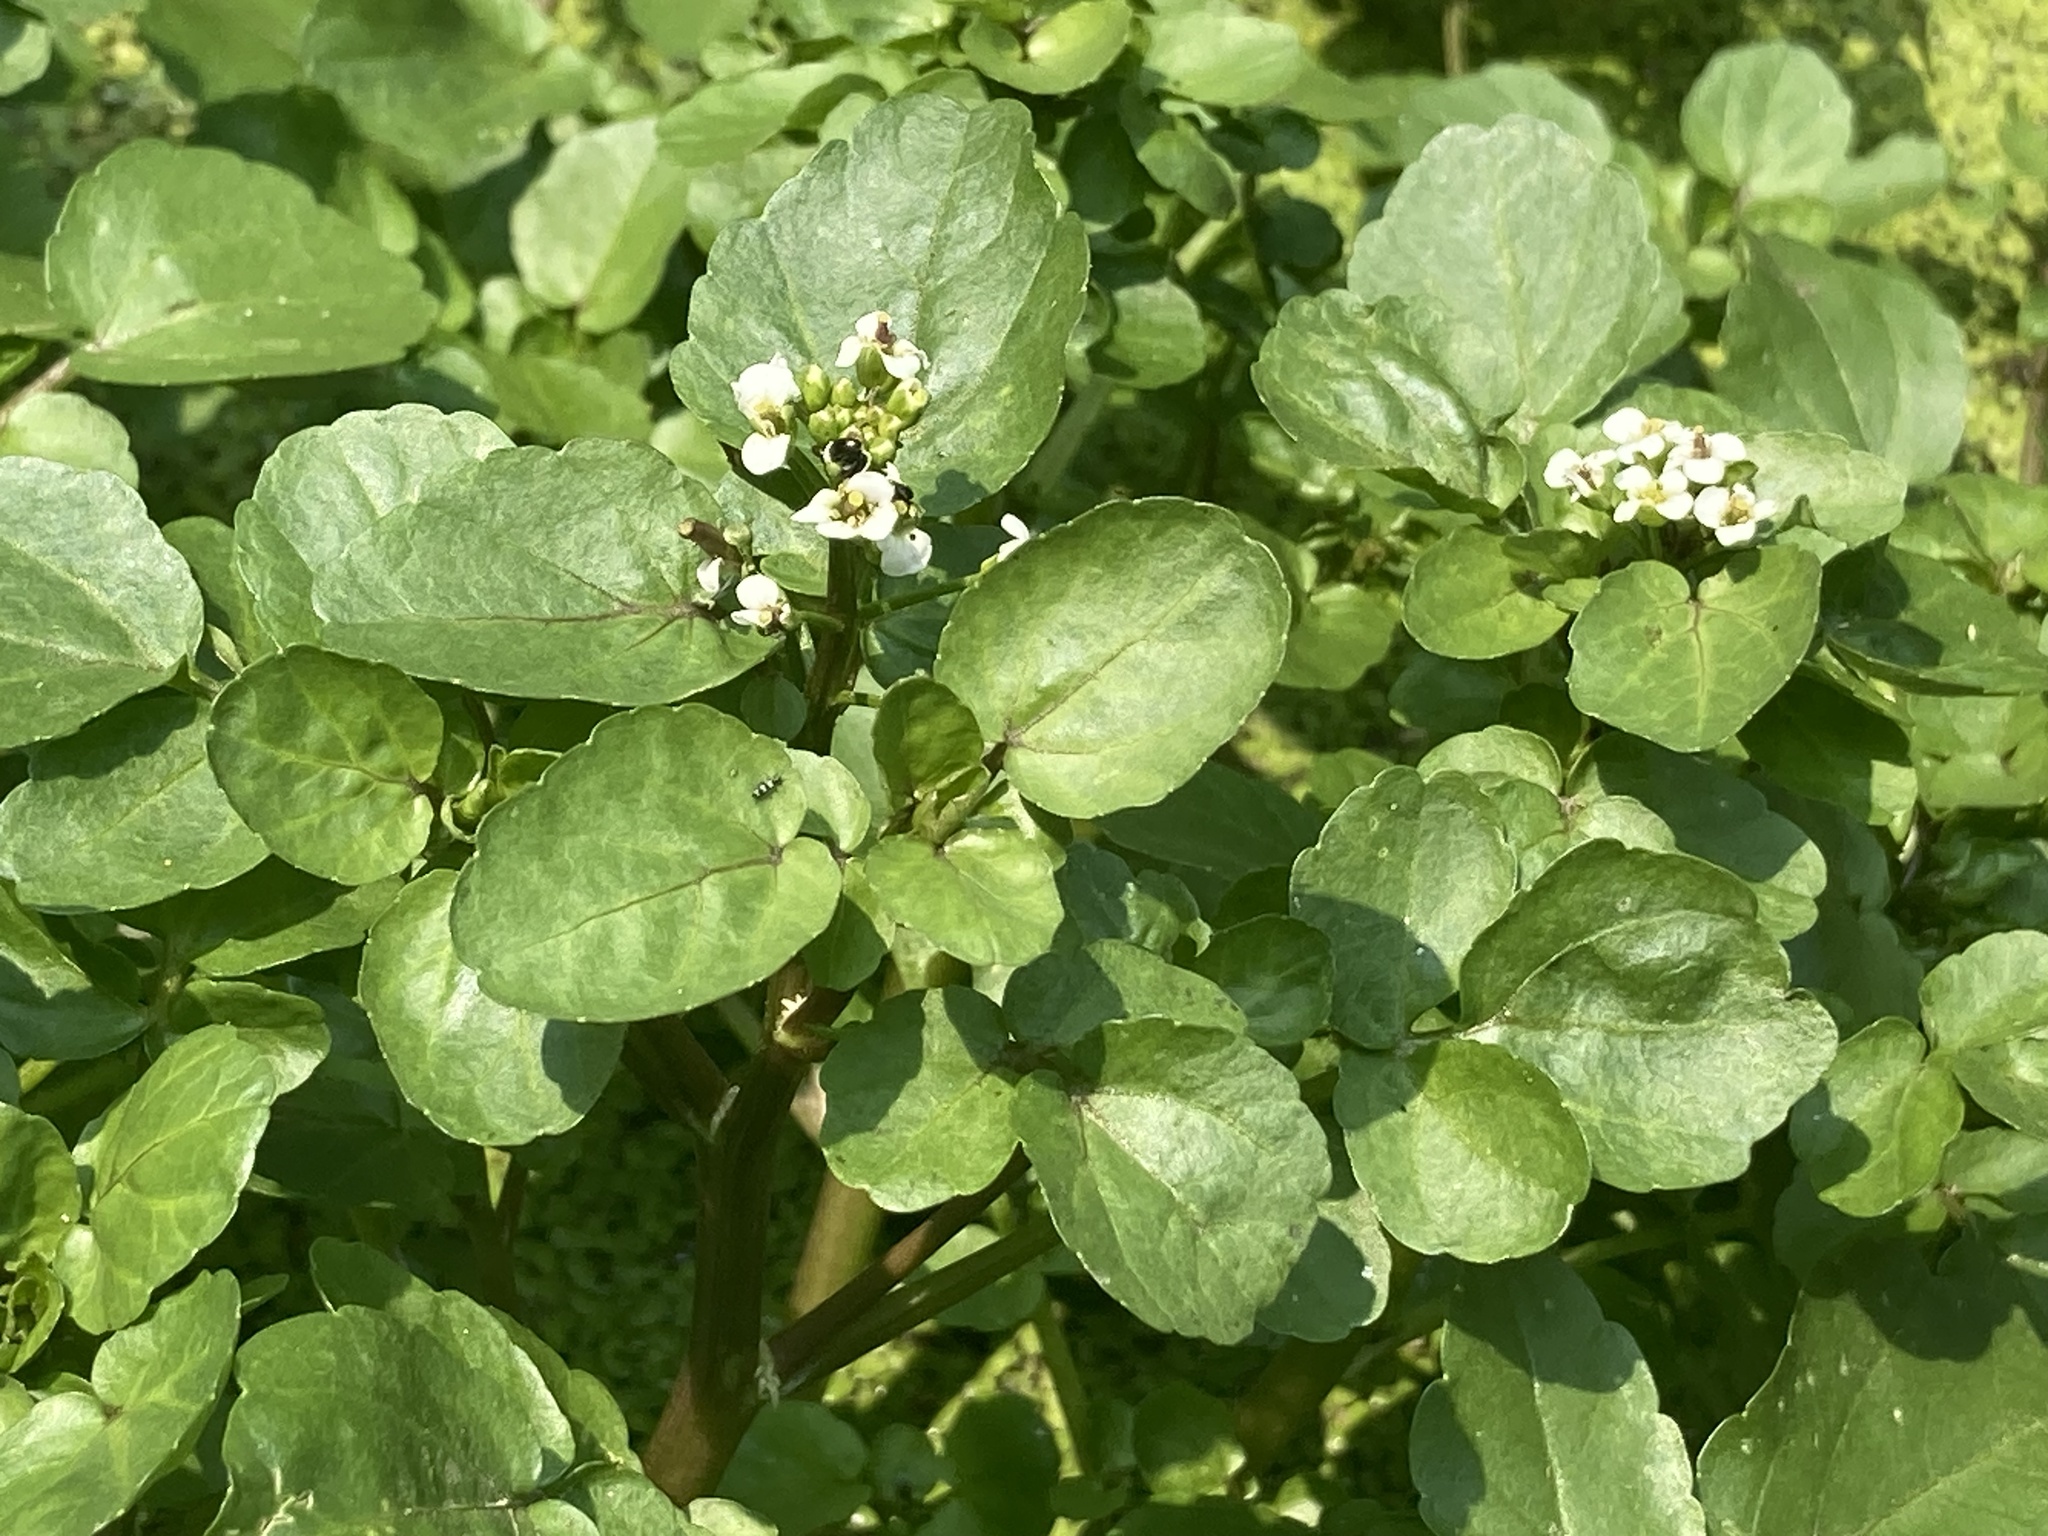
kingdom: Plantae
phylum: Tracheophyta
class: Magnoliopsida
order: Brassicales
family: Brassicaceae
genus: Nasturtium
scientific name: Nasturtium officinale
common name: Watercress
